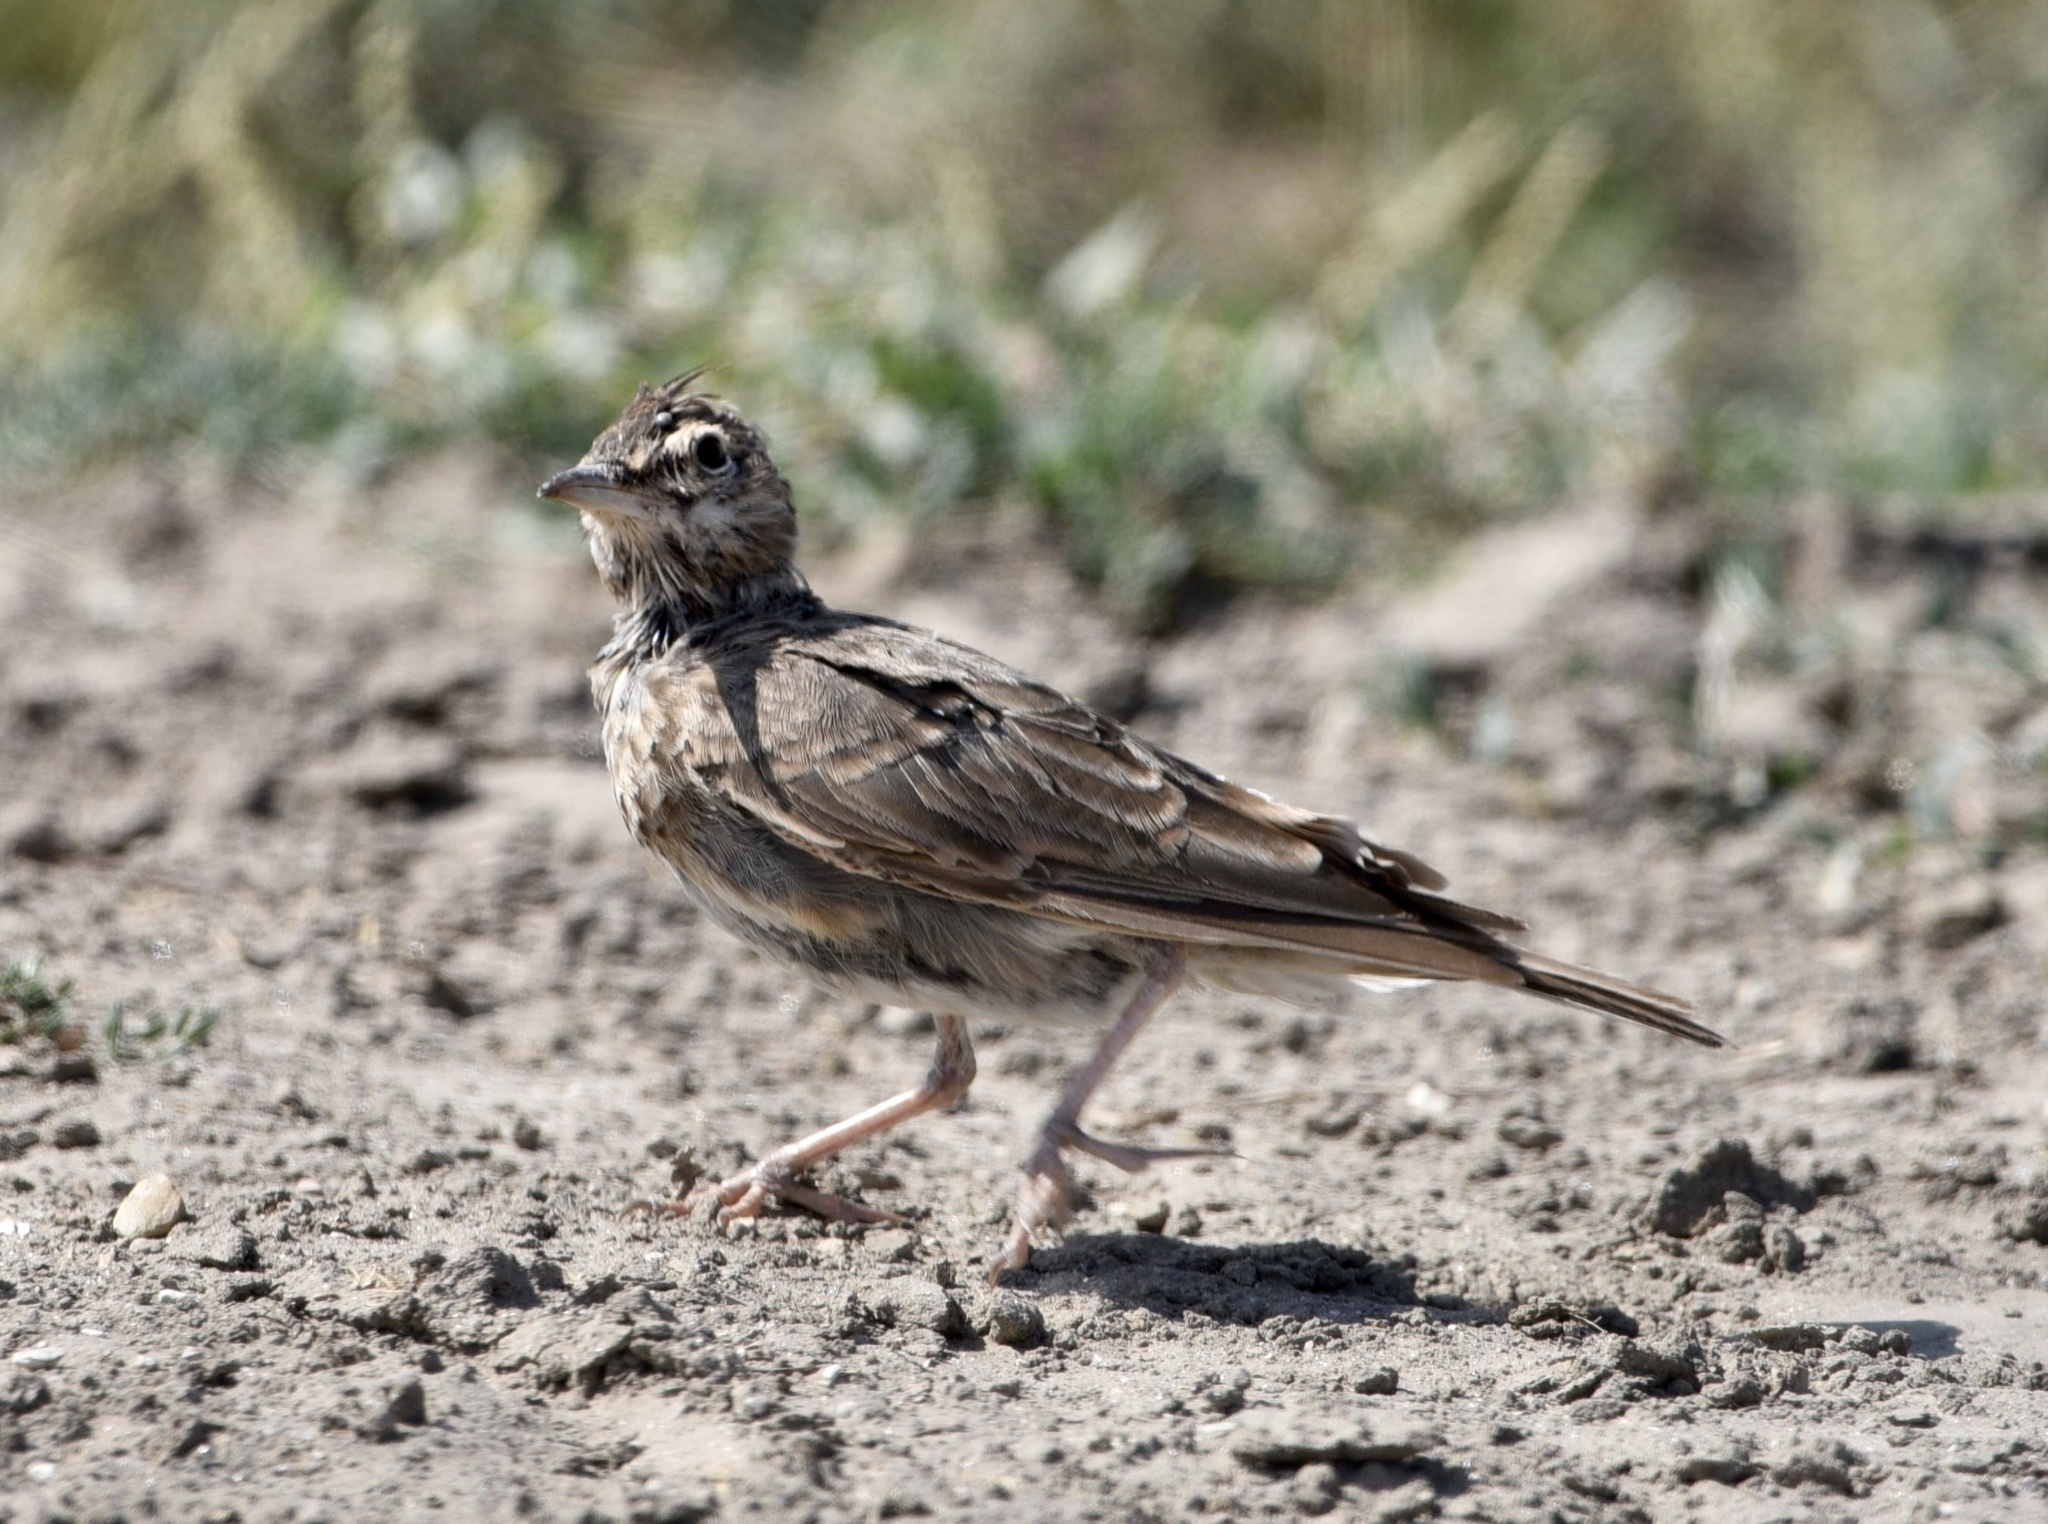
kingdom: Animalia
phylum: Chordata
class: Aves
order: Passeriformes
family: Alaudidae
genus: Galerida
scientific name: Galerida cristata
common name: Crested lark
